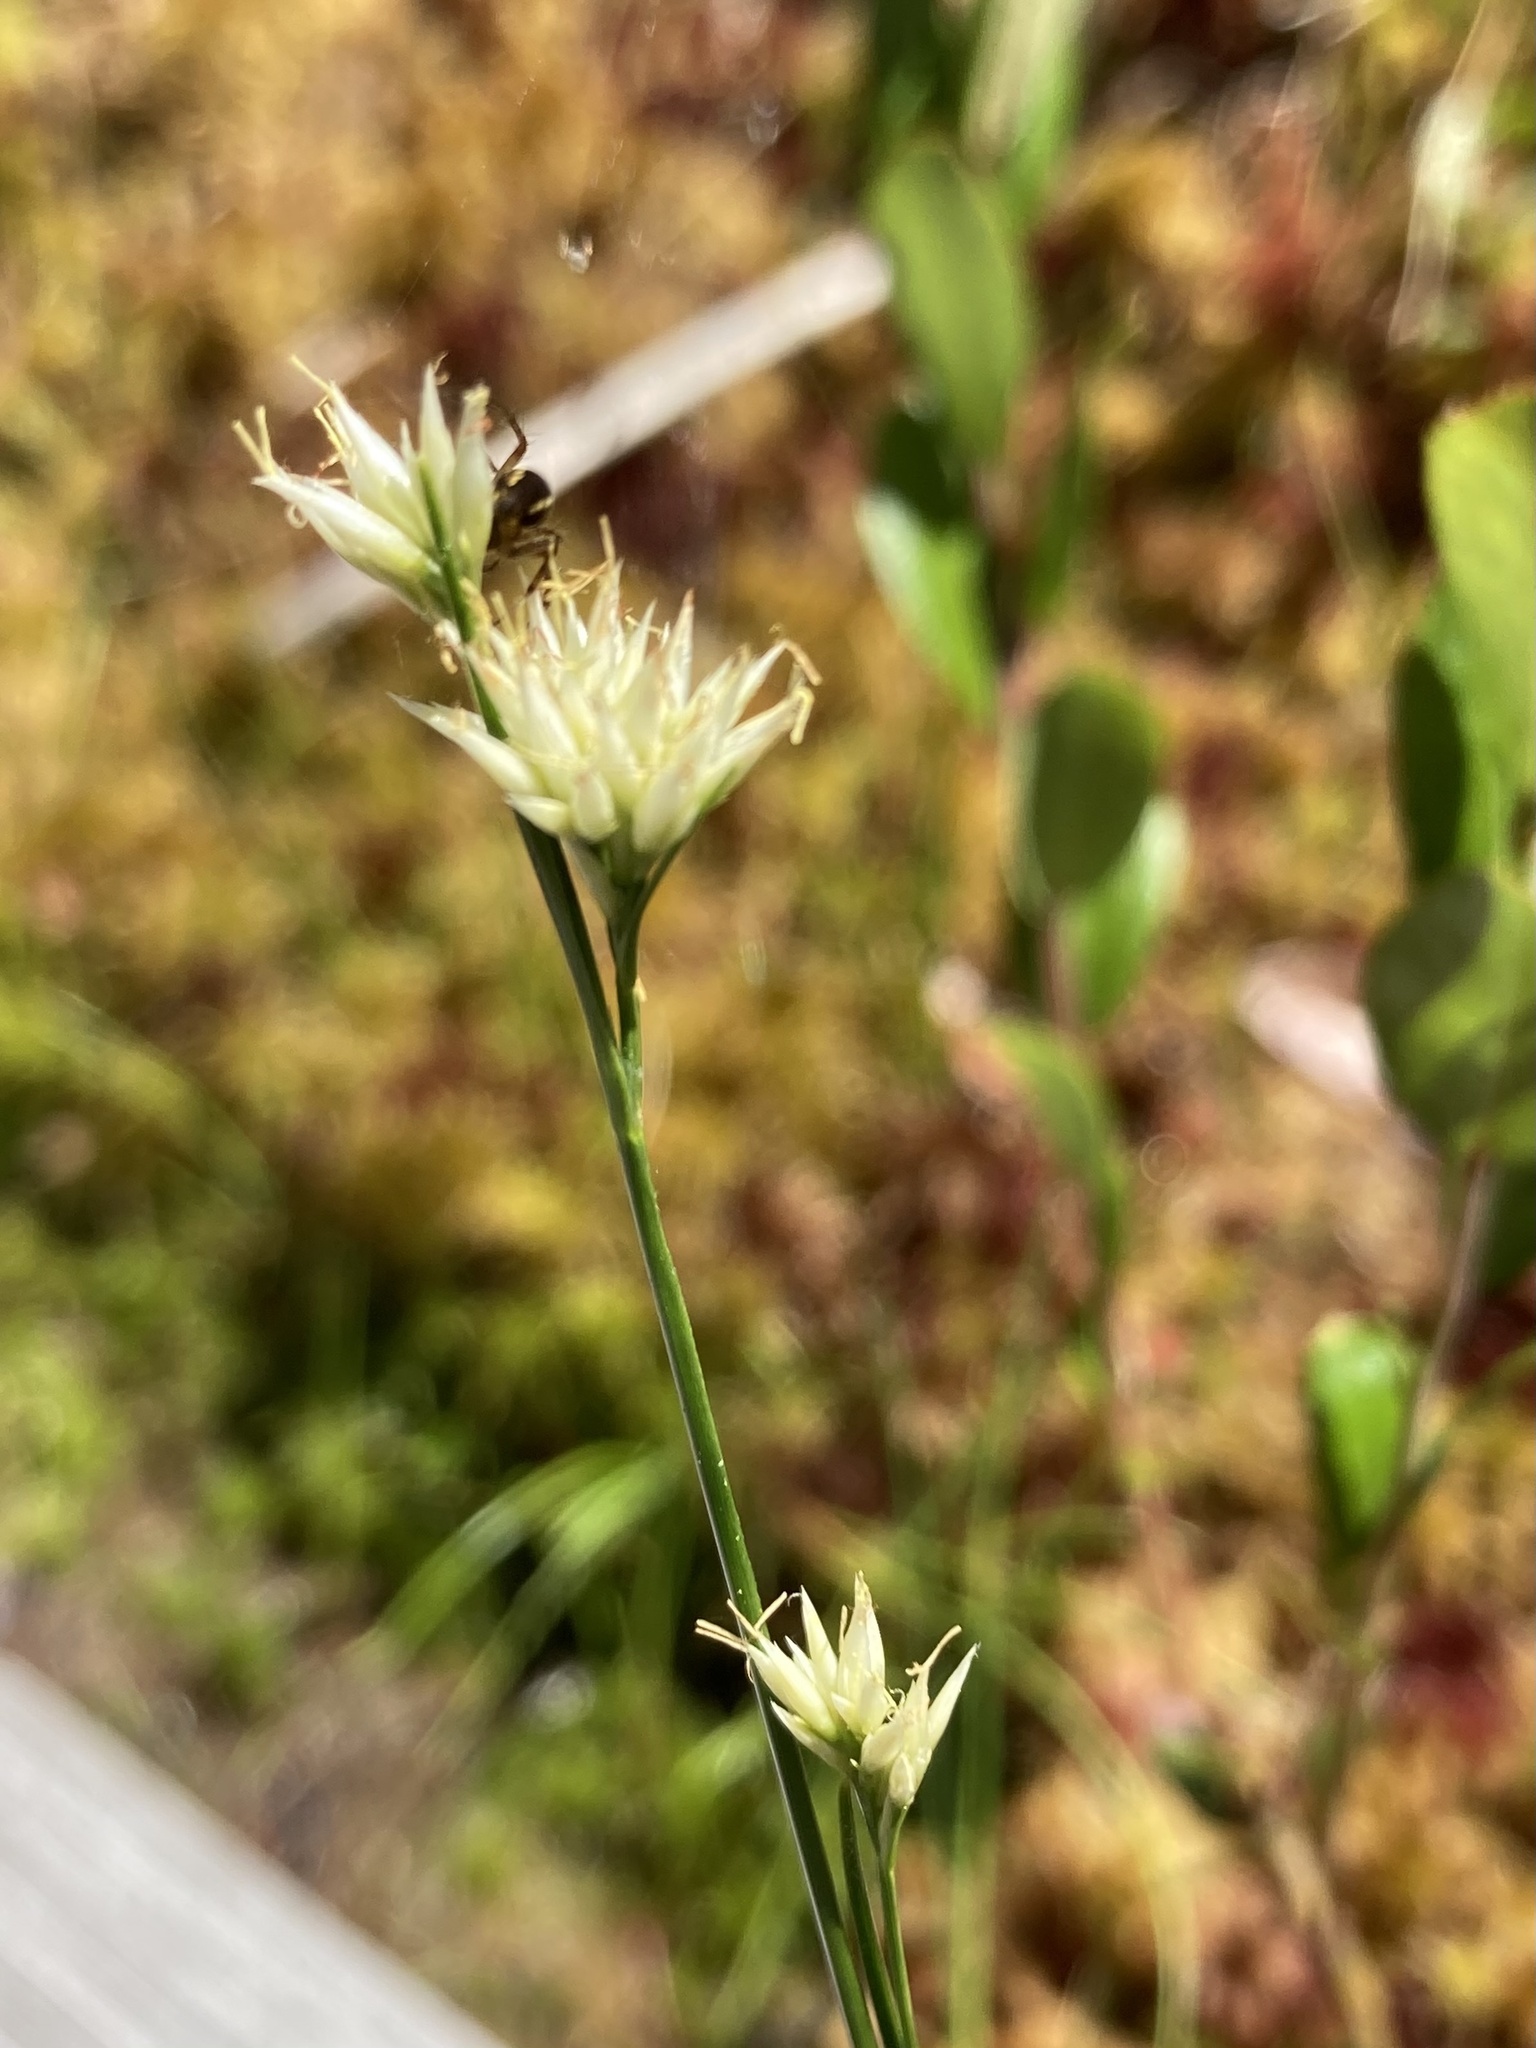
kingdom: Plantae
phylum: Tracheophyta
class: Liliopsida
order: Poales
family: Cyperaceae
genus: Rhynchospora
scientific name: Rhynchospora alba
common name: White beak-sedge
